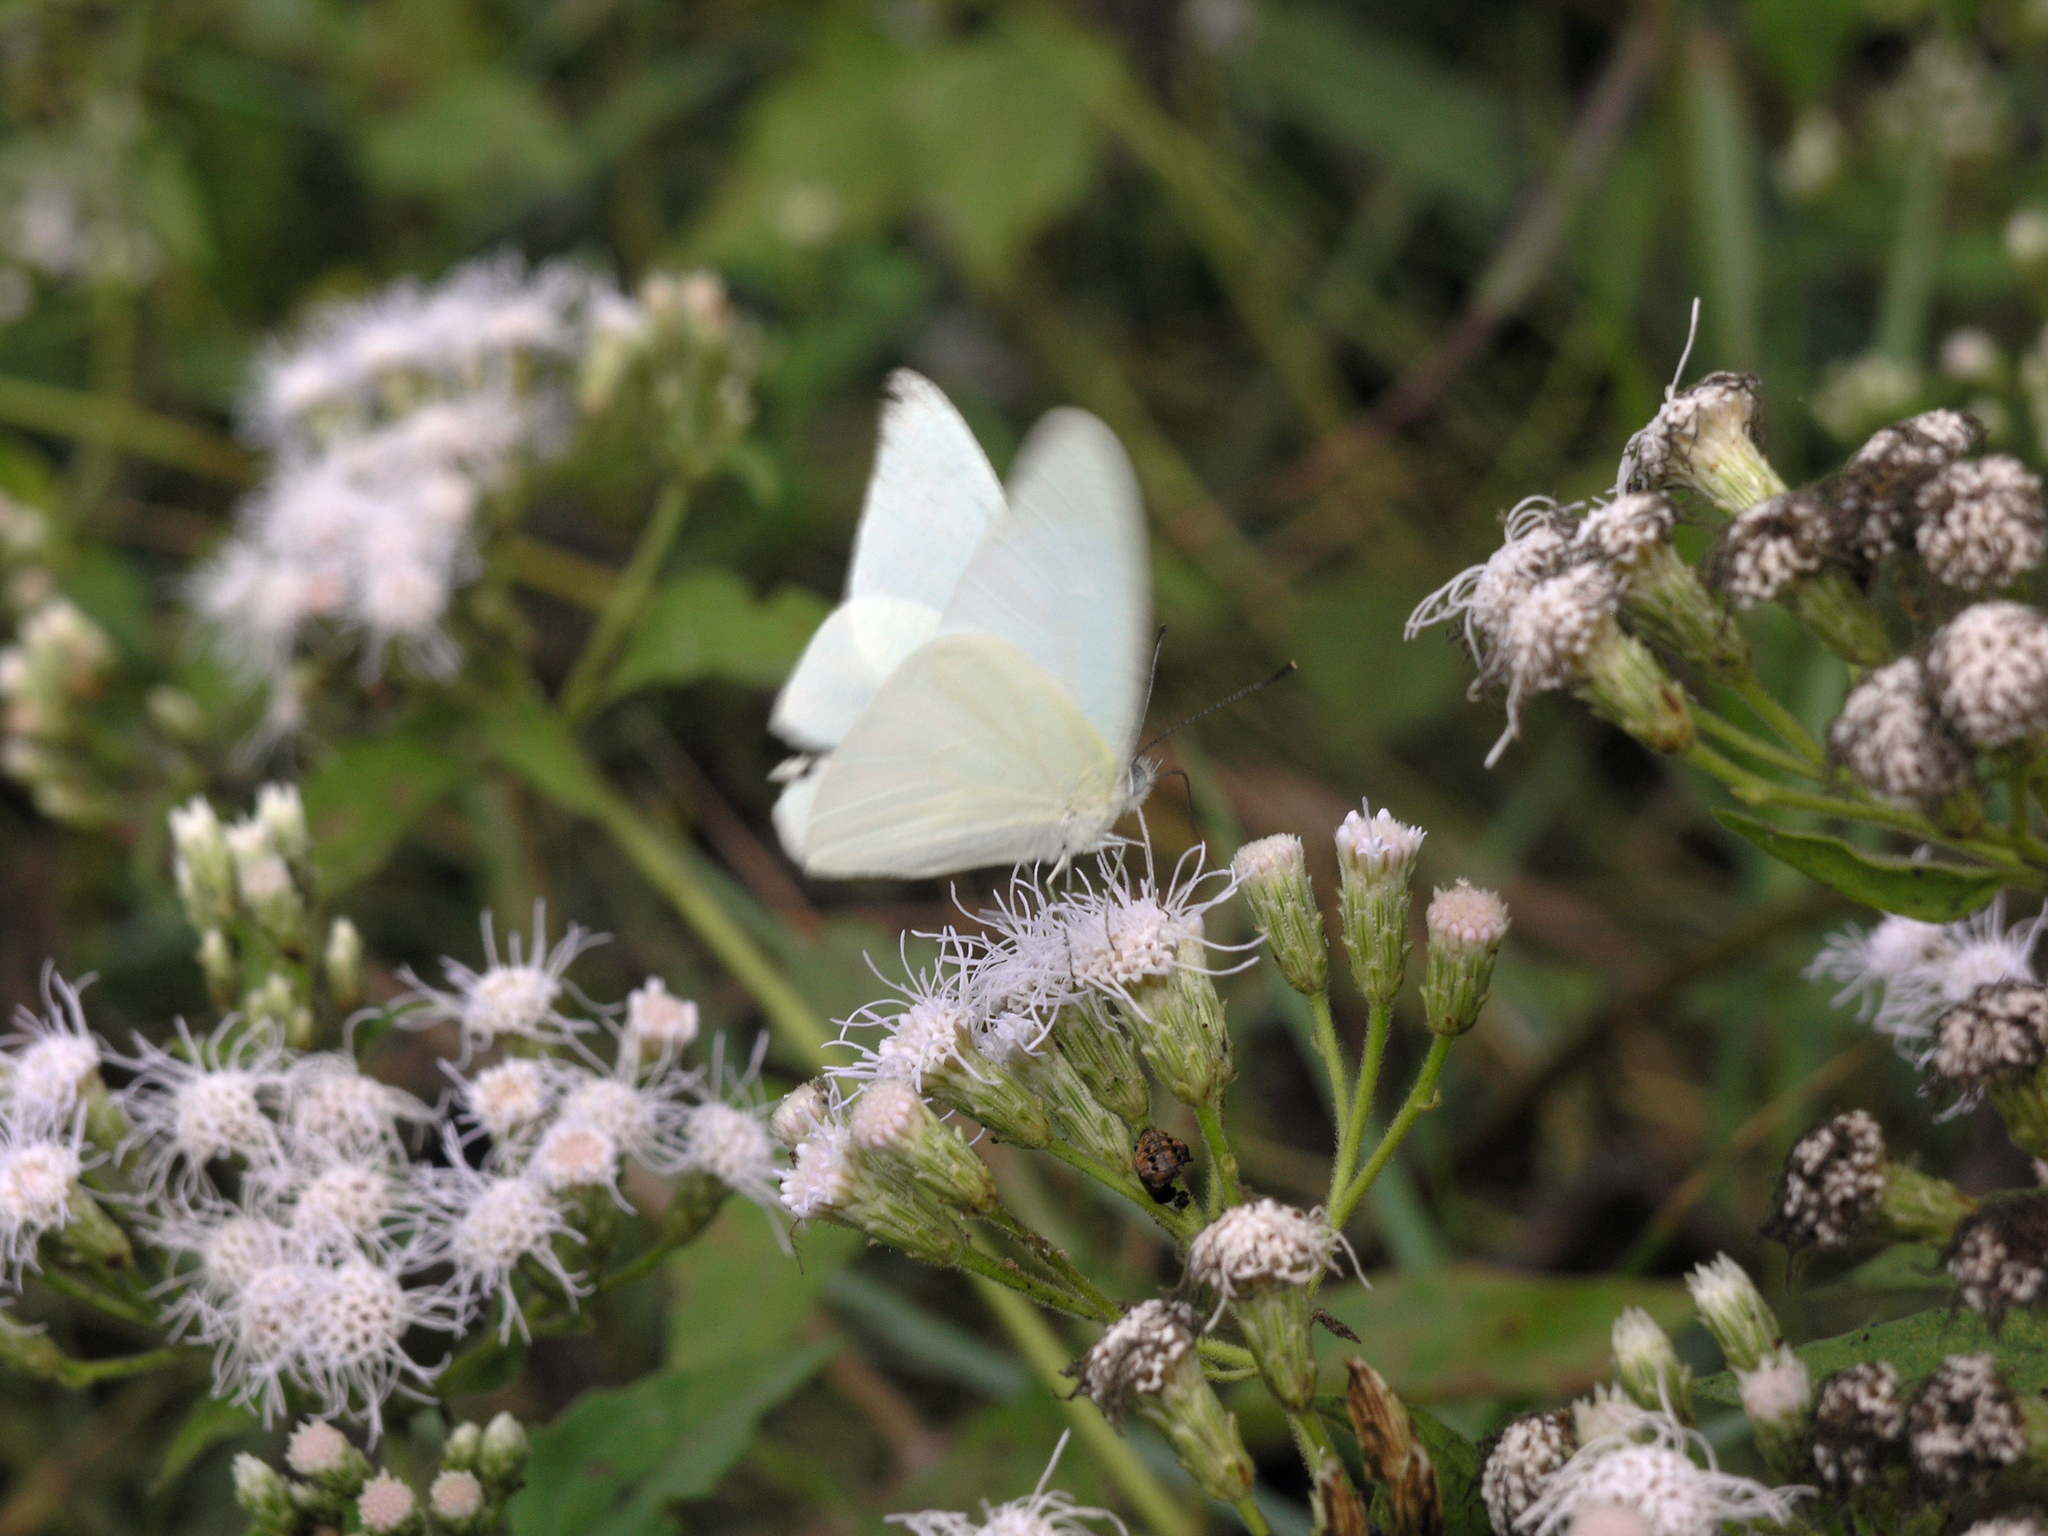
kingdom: Plantae
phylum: Tracheophyta
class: Magnoliopsida
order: Asterales
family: Asteraceae
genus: Chromolaena
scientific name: Chromolaena odorata
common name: Siamweed
